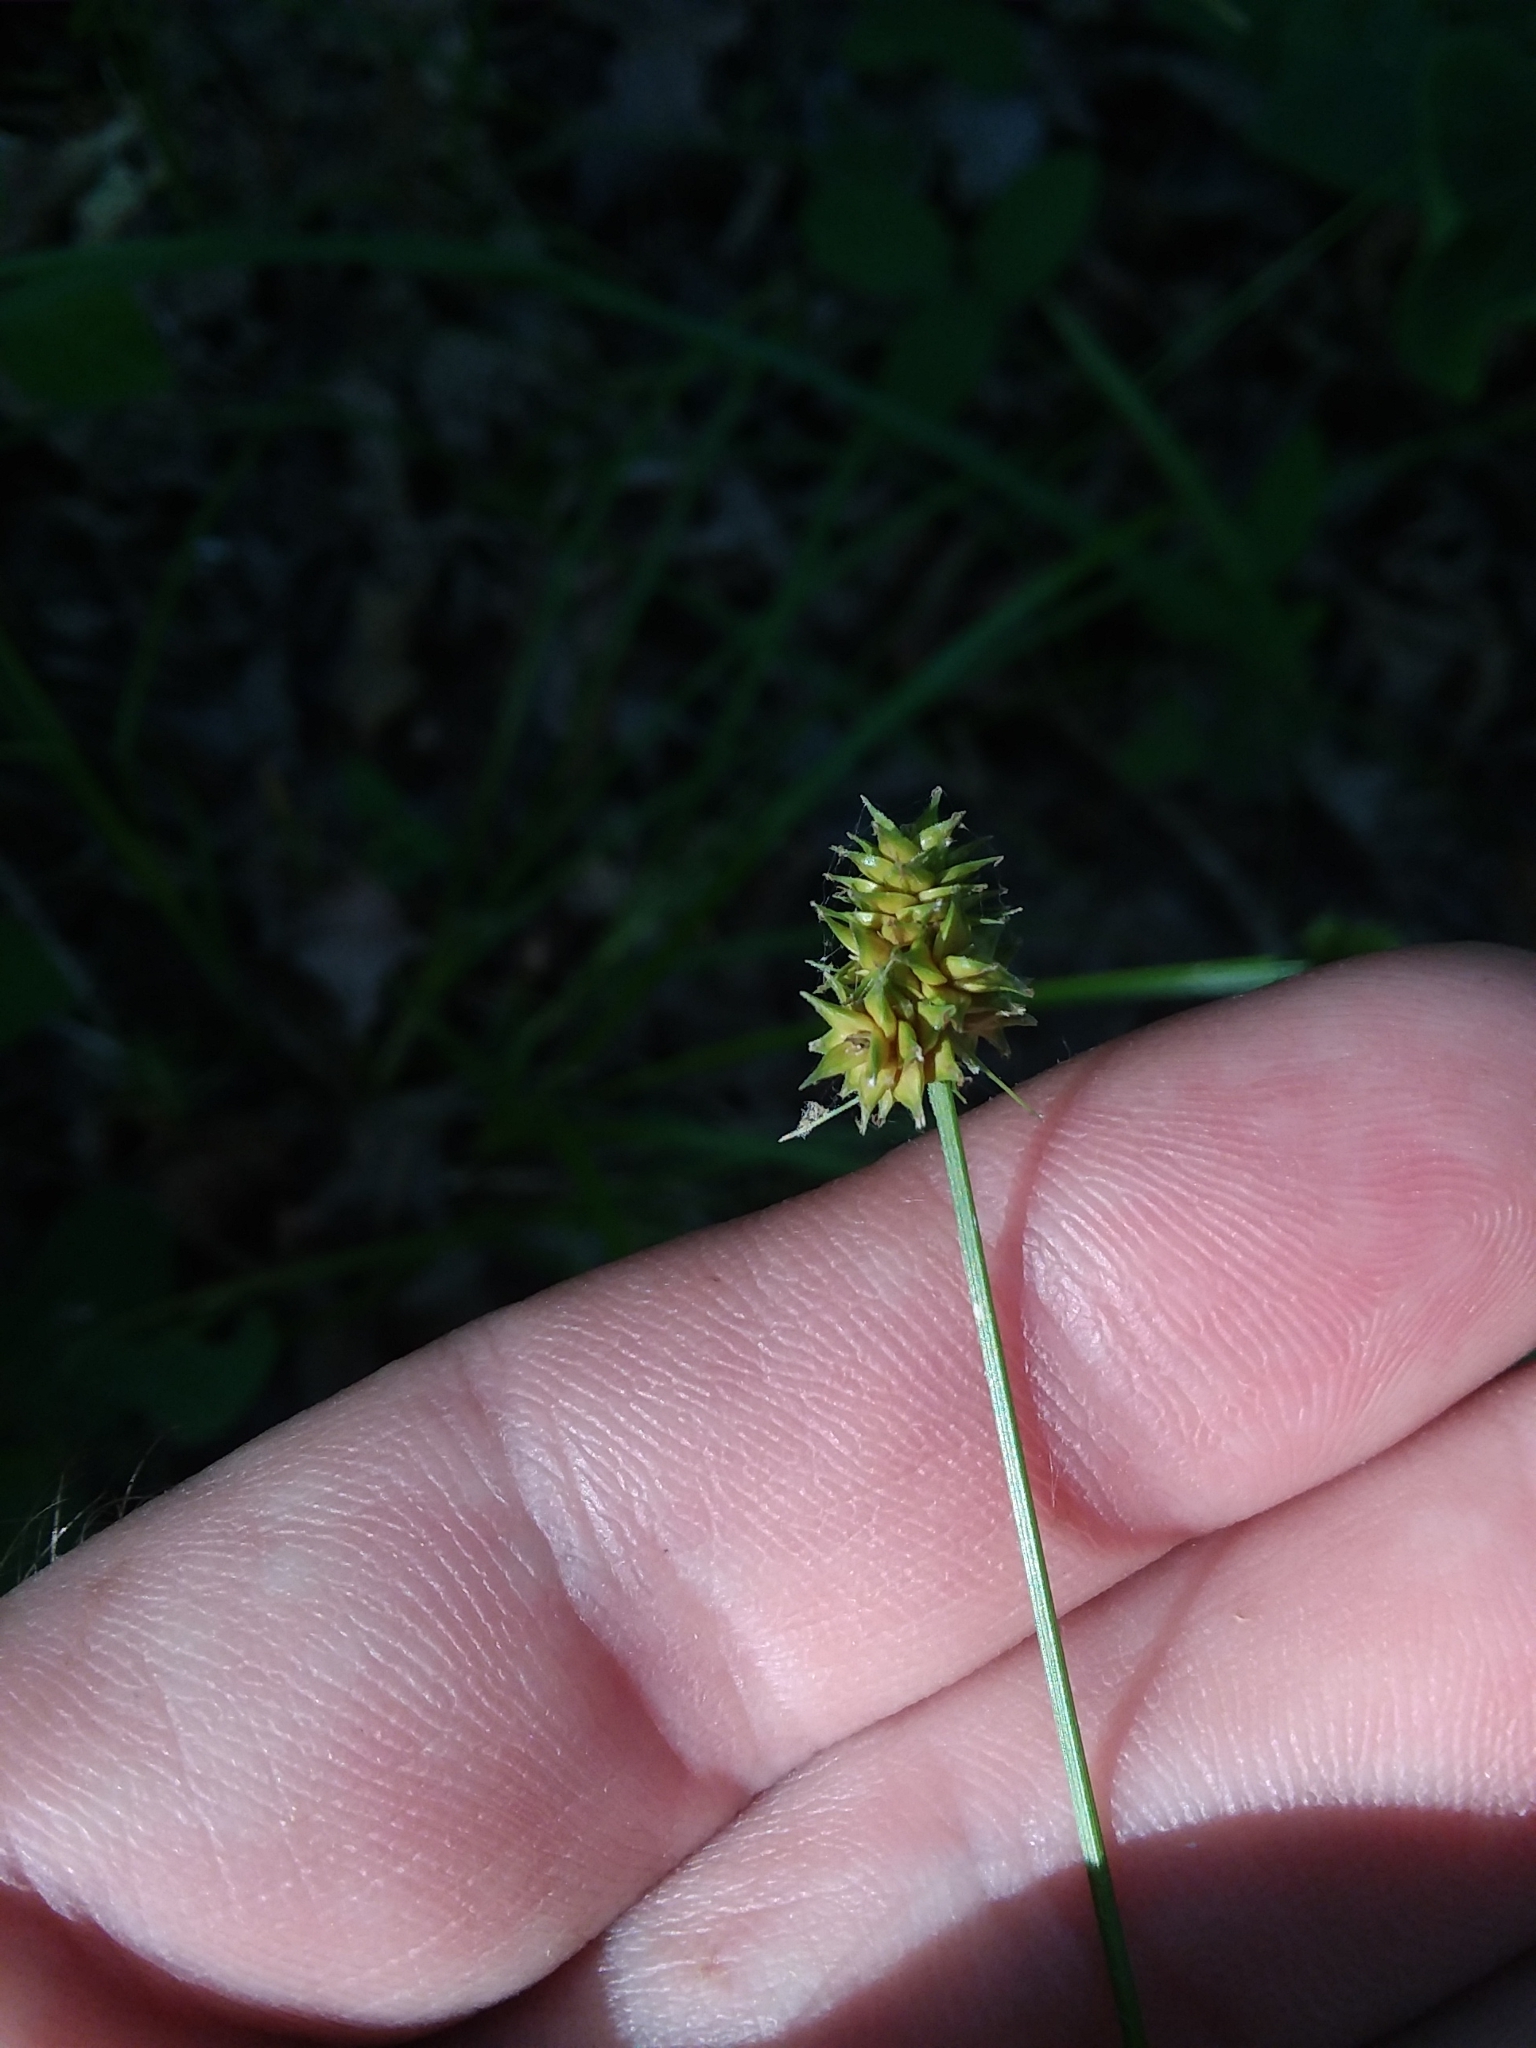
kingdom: Plantae
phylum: Tracheophyta
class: Liliopsida
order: Poales
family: Cyperaceae
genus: Carex
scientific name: Carex cephalophora
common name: Oval-headed sedge
